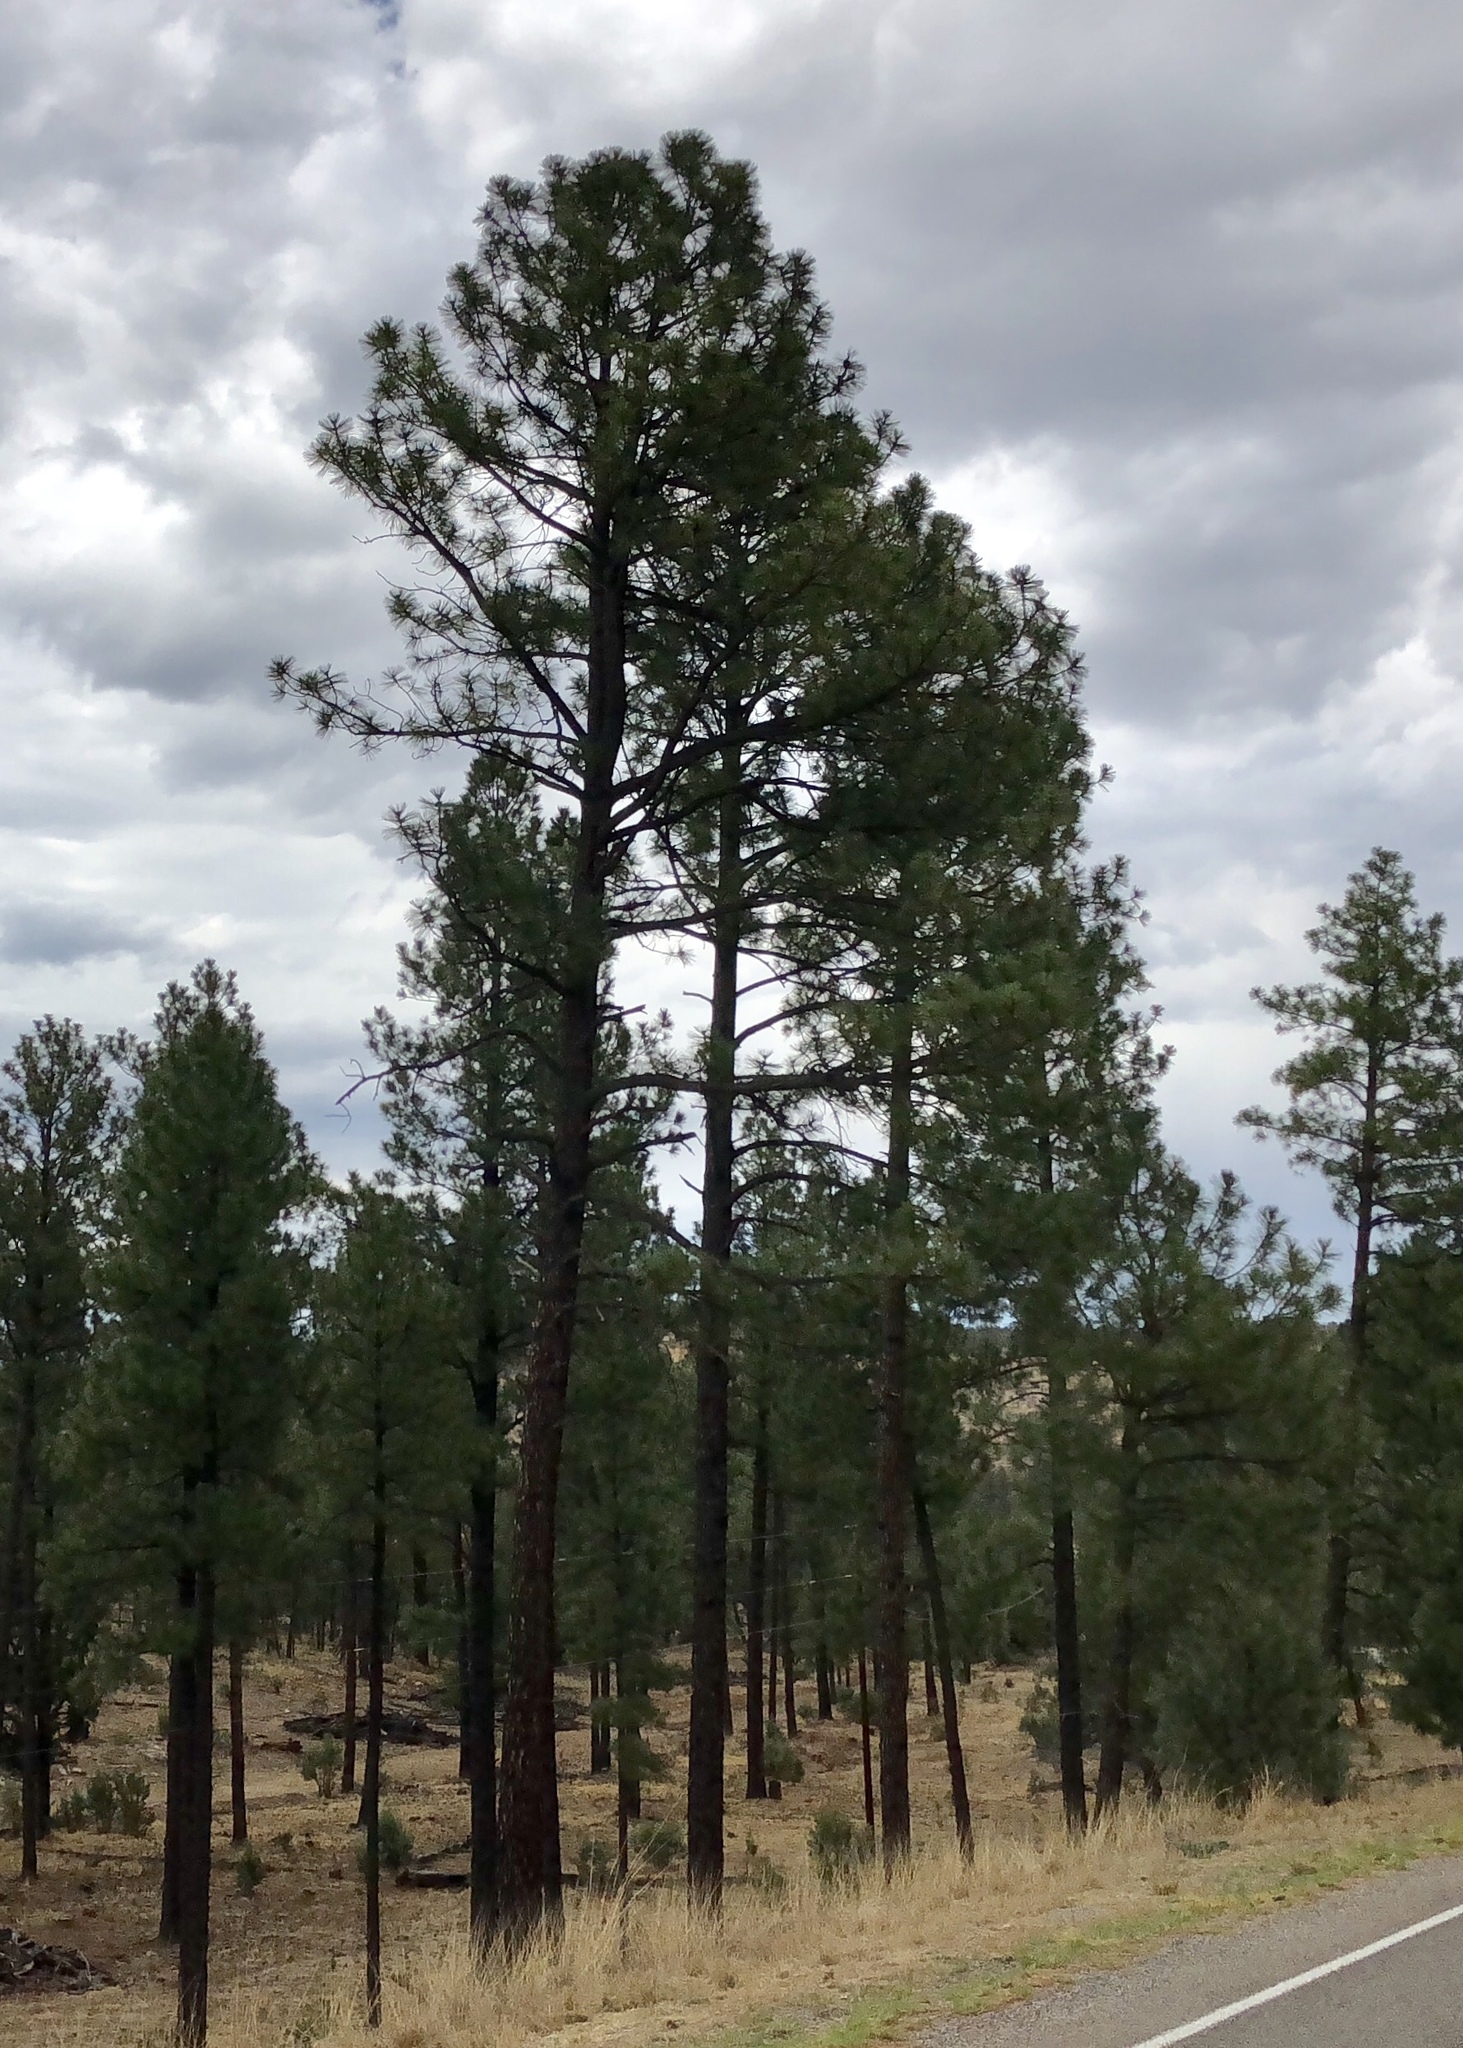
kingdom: Plantae
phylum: Tracheophyta
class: Pinopsida
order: Pinales
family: Pinaceae
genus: Pinus
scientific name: Pinus ponderosa
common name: Western yellow-pine
